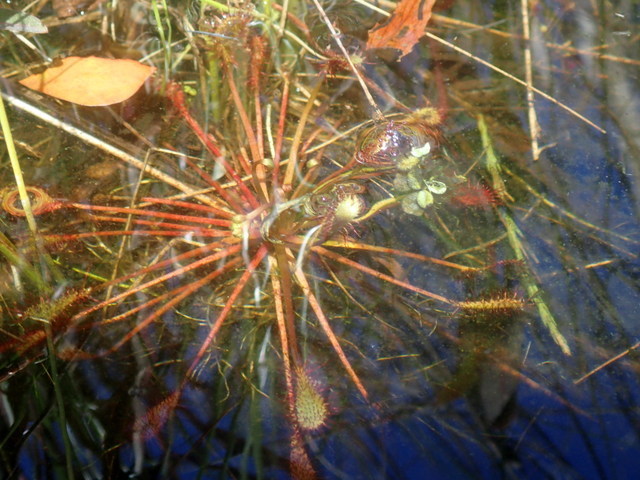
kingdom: Plantae
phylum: Tracheophyta
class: Magnoliopsida
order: Caryophyllales
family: Droseraceae
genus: Drosera
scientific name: Drosera intermedia
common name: Oblong-leaved sundew
